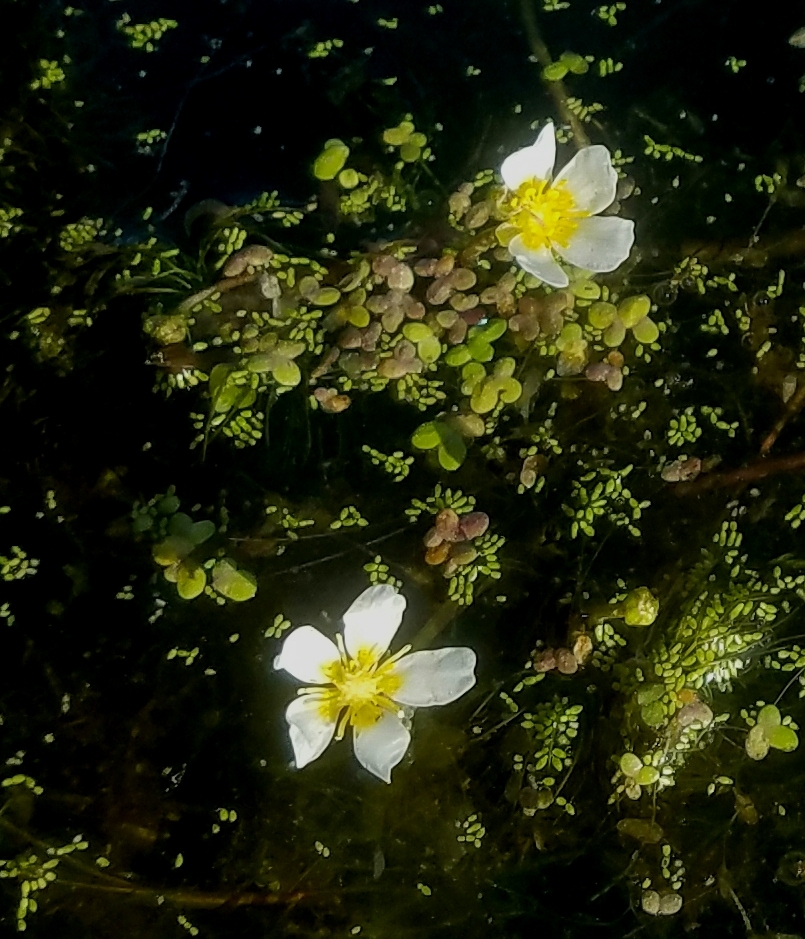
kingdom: Plantae
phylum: Tracheophyta
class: Magnoliopsida
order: Ranunculales
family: Ranunculaceae
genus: Ranunculus
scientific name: Ranunculus aquatilis
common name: Common water-crowfoot
